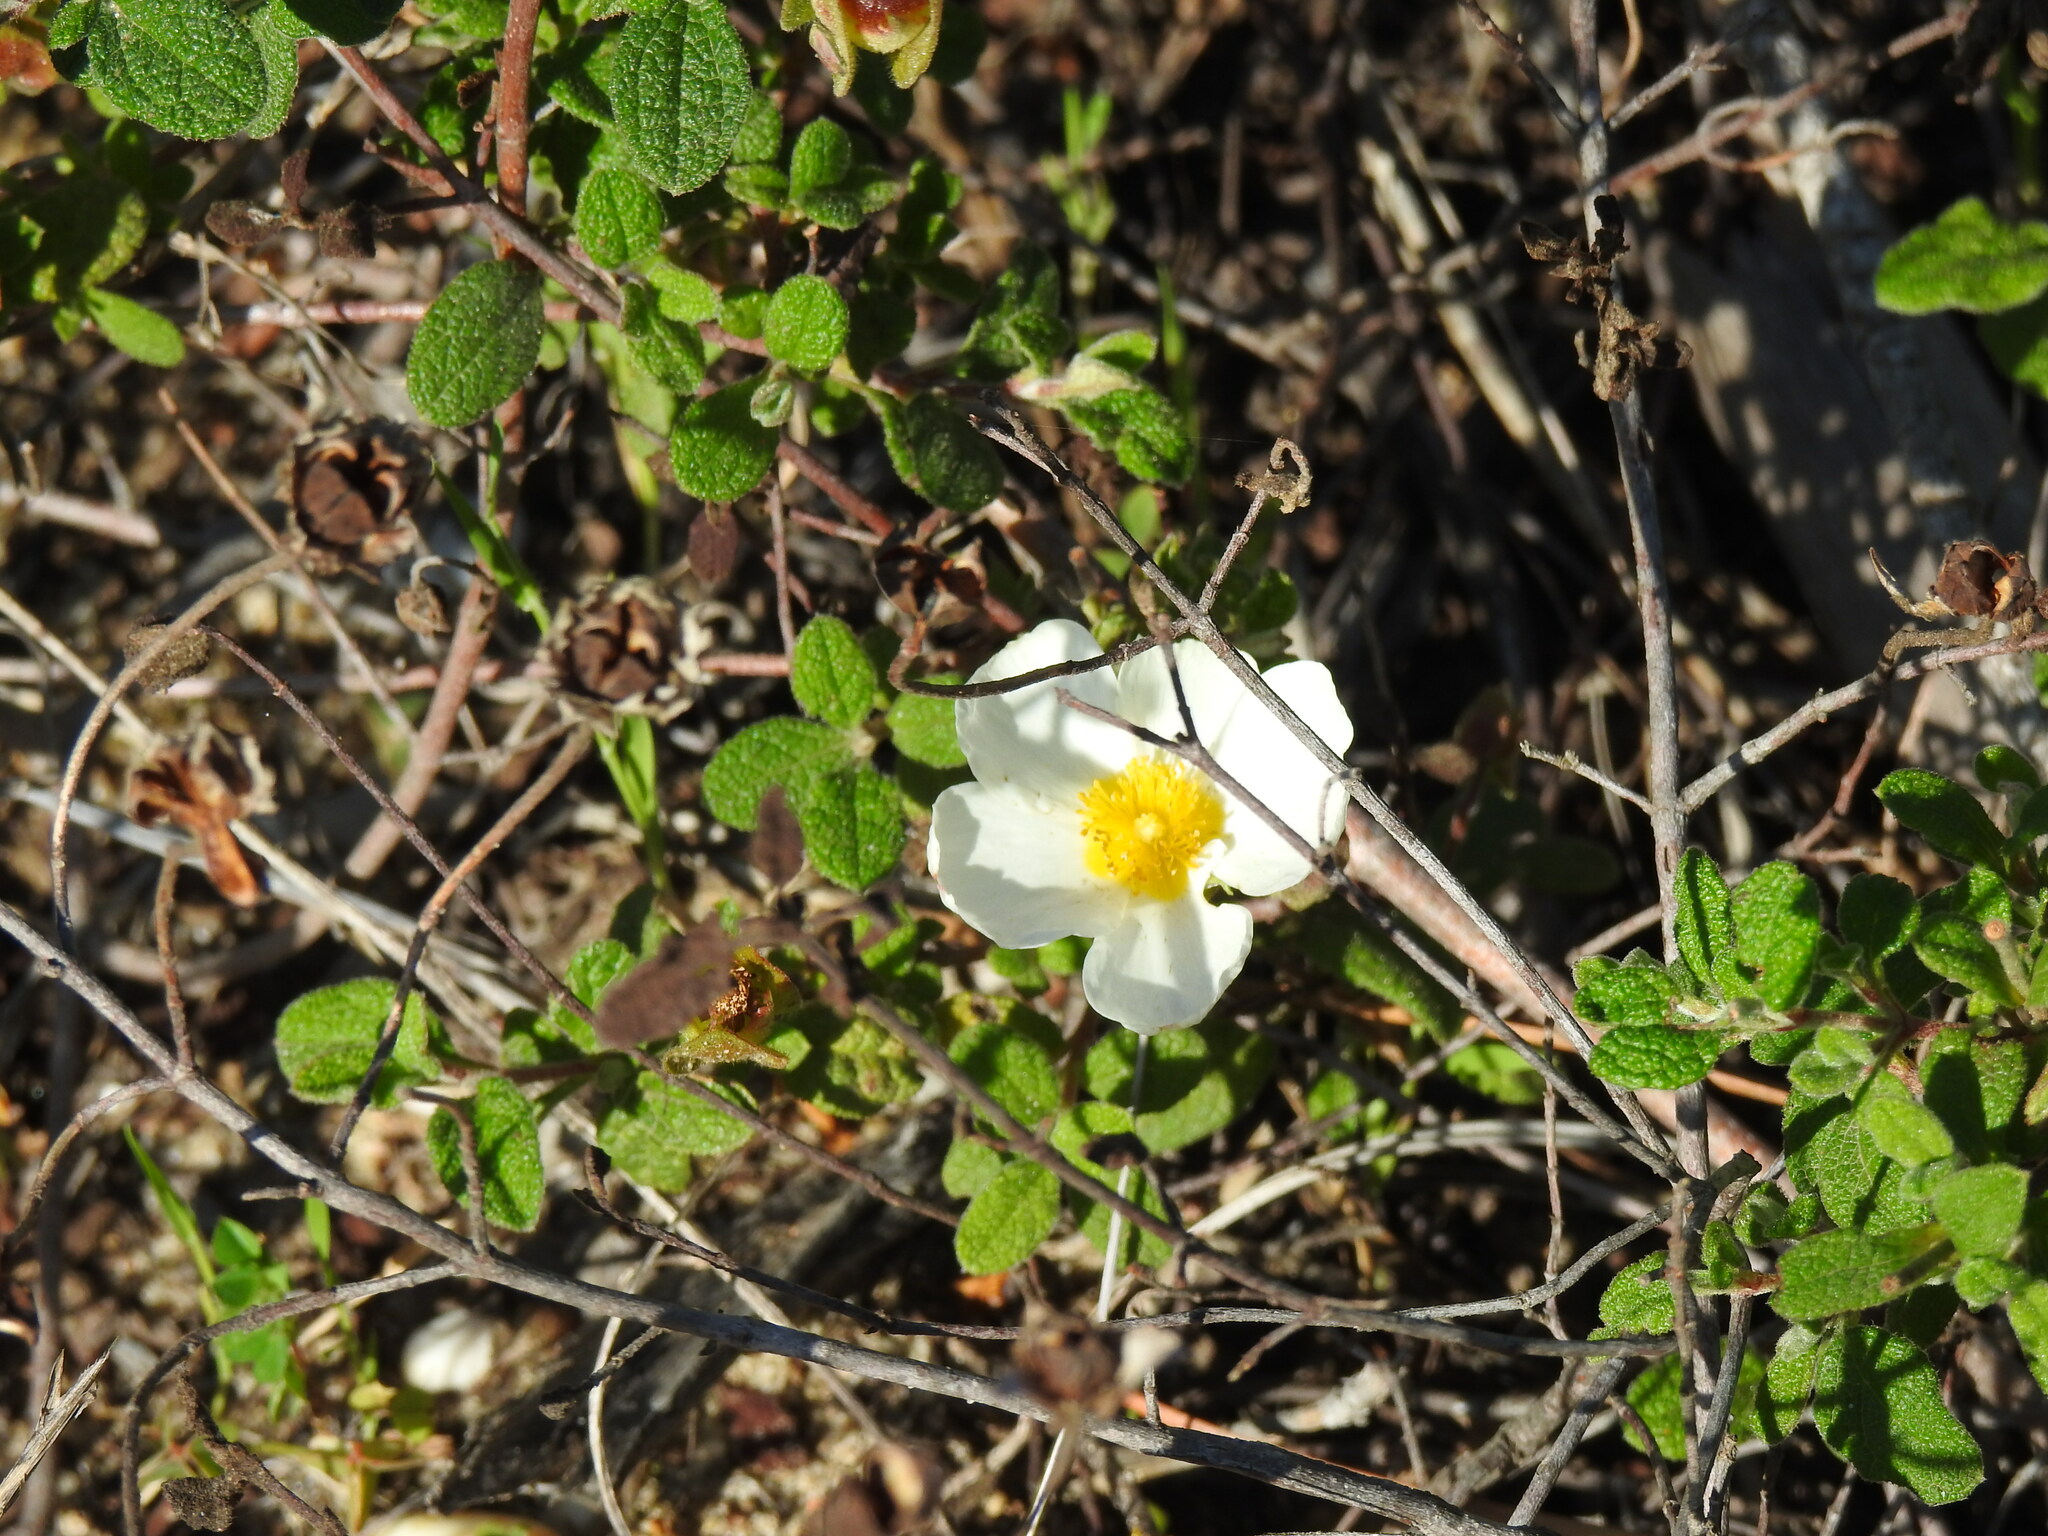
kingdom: Plantae
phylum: Tracheophyta
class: Magnoliopsida
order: Malvales
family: Cistaceae
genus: Cistus
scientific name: Cistus salviifolius
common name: Salvia cistus
